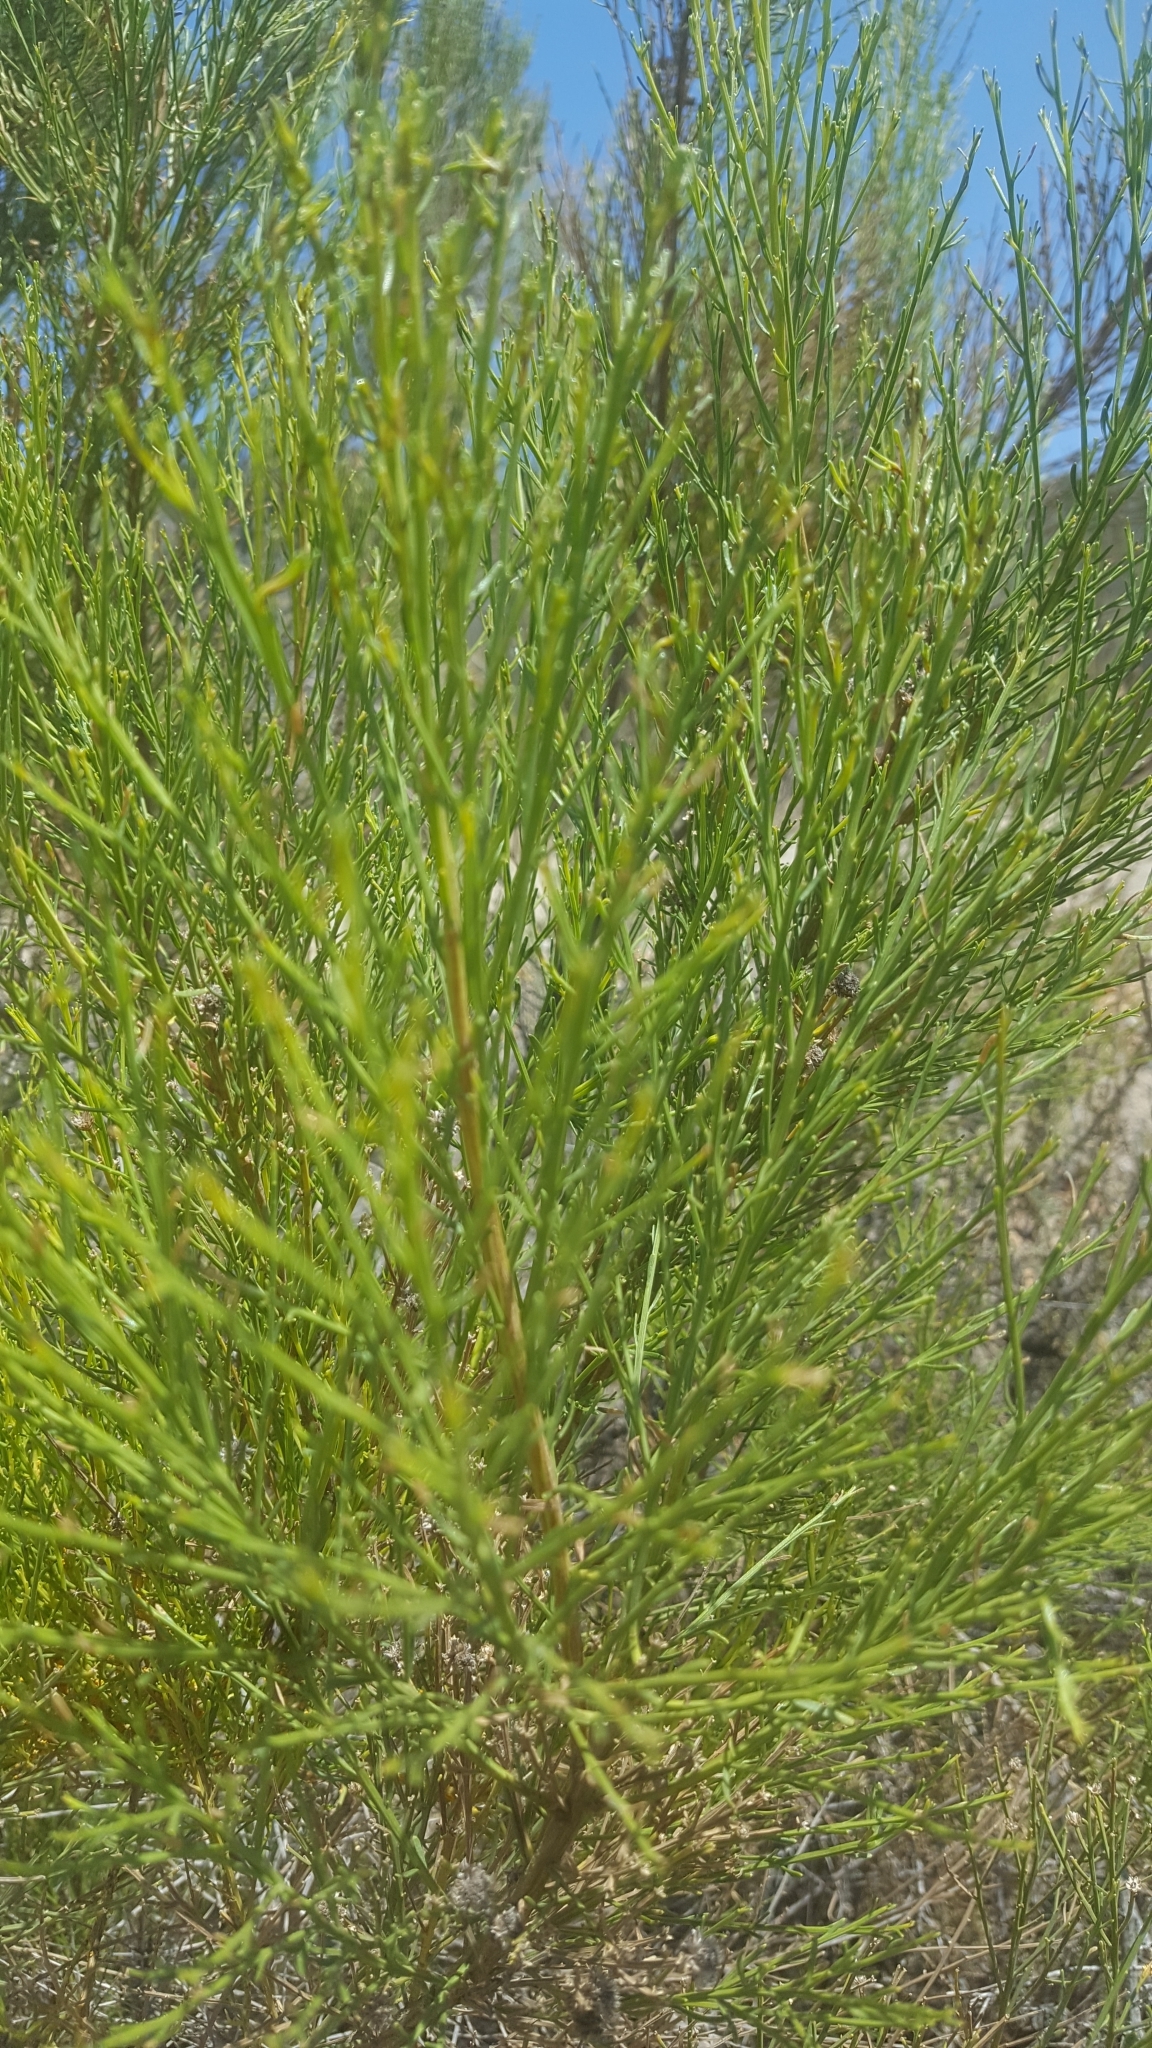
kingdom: Plantae
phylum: Tracheophyta
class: Magnoliopsida
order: Asterales
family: Asteraceae
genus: Baccharis
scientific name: Baccharis sarothroides
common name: Desert-broom
